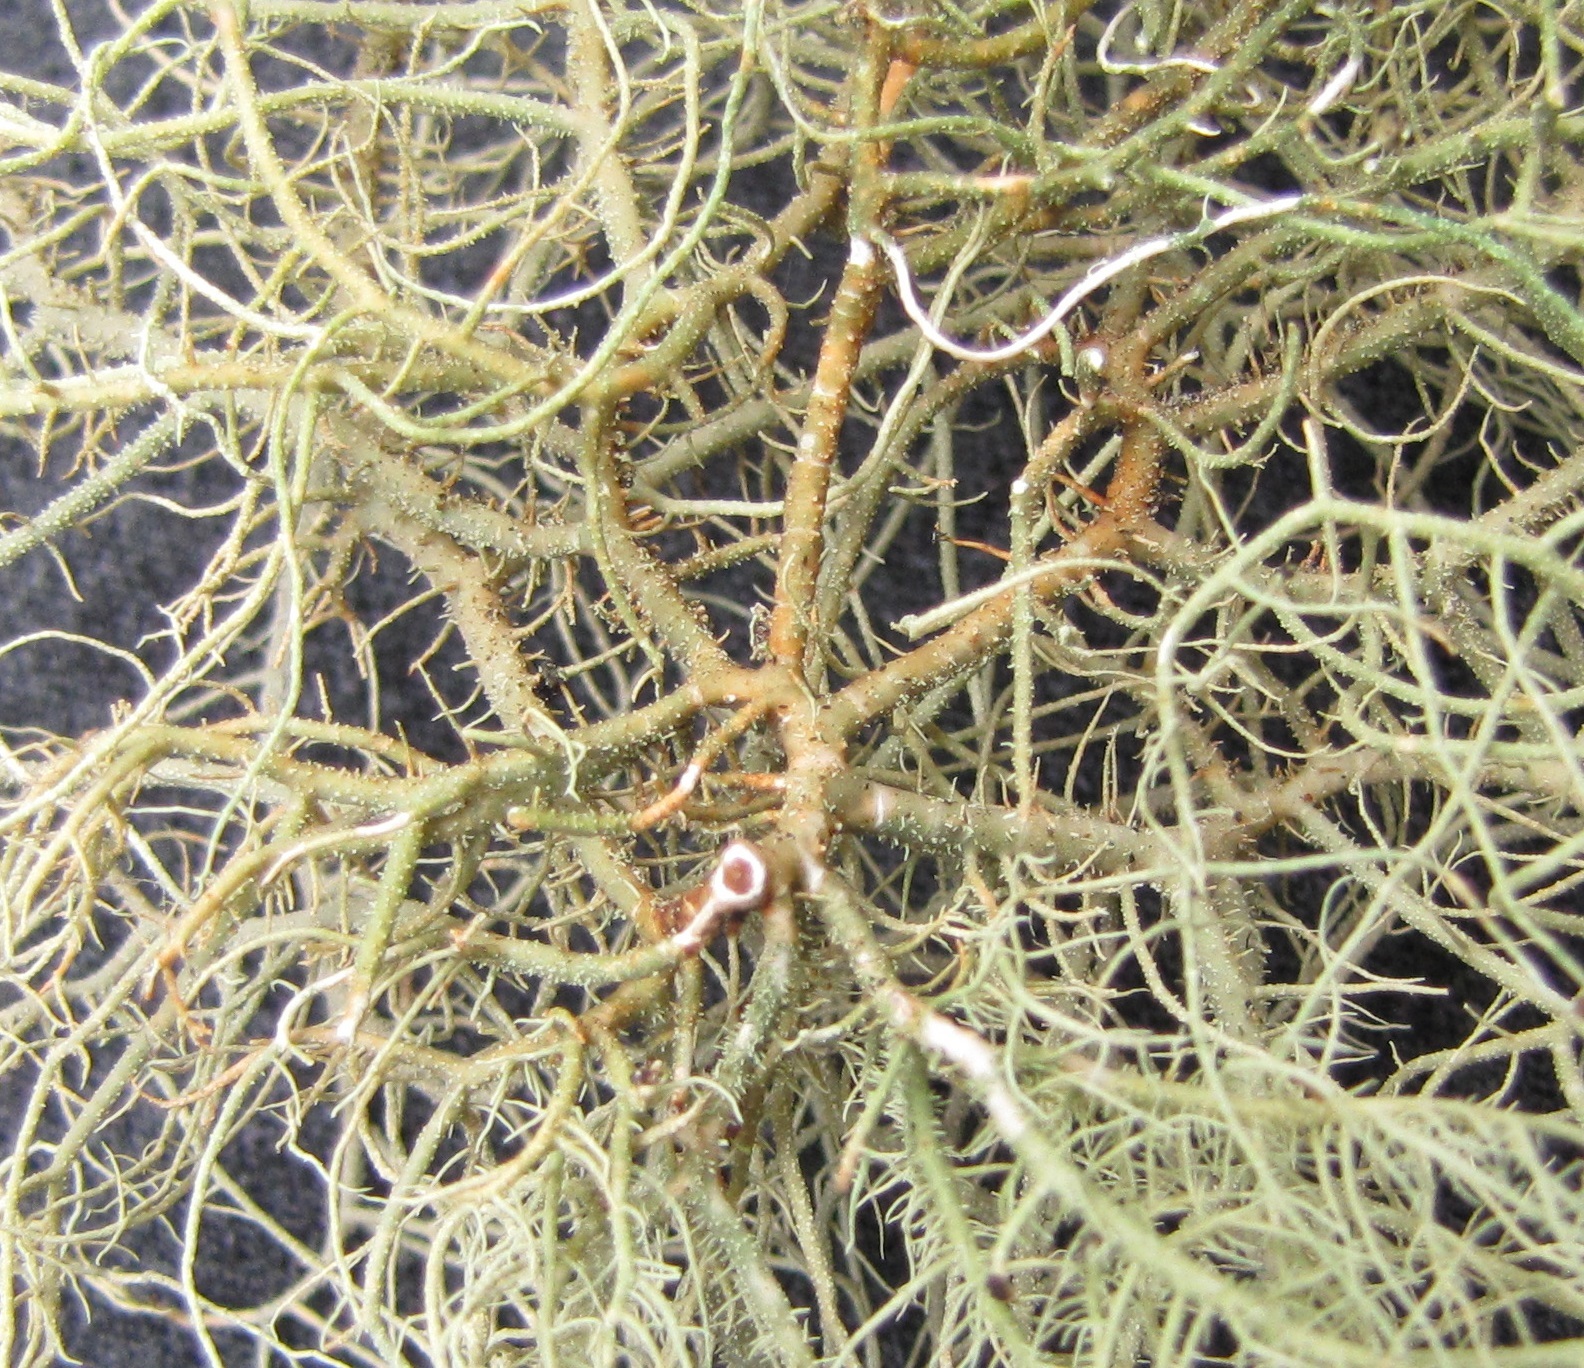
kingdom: Fungi
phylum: Ascomycota
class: Lecanoromycetes
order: Lecanorales
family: Parmeliaceae
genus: Usnea
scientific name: Usnea hirta
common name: Bristly beard lichen
